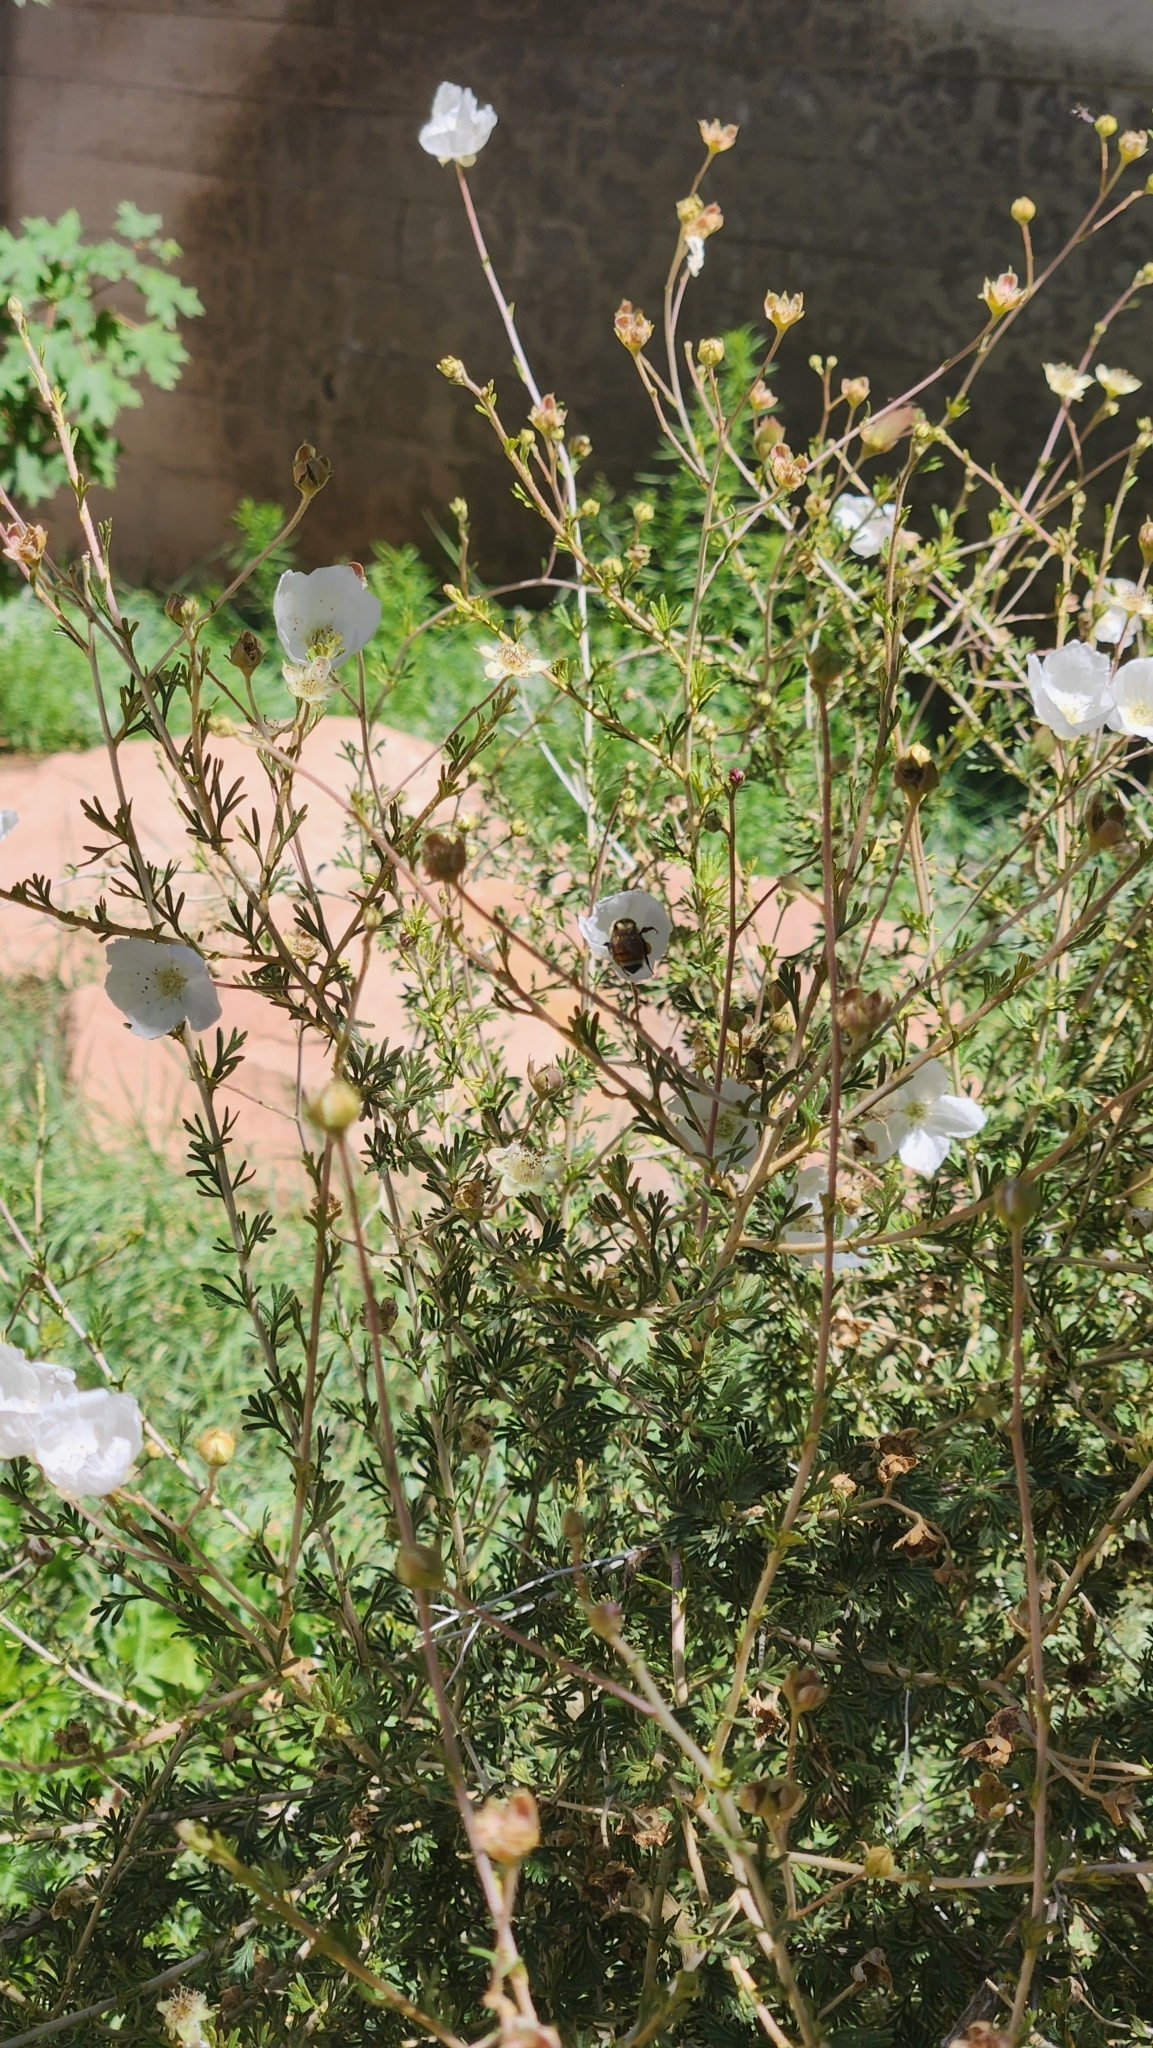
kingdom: Animalia
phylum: Arthropoda
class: Insecta
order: Hymenoptera
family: Apidae
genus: Bombus
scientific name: Bombus huntii
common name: Hunt bumble bee
